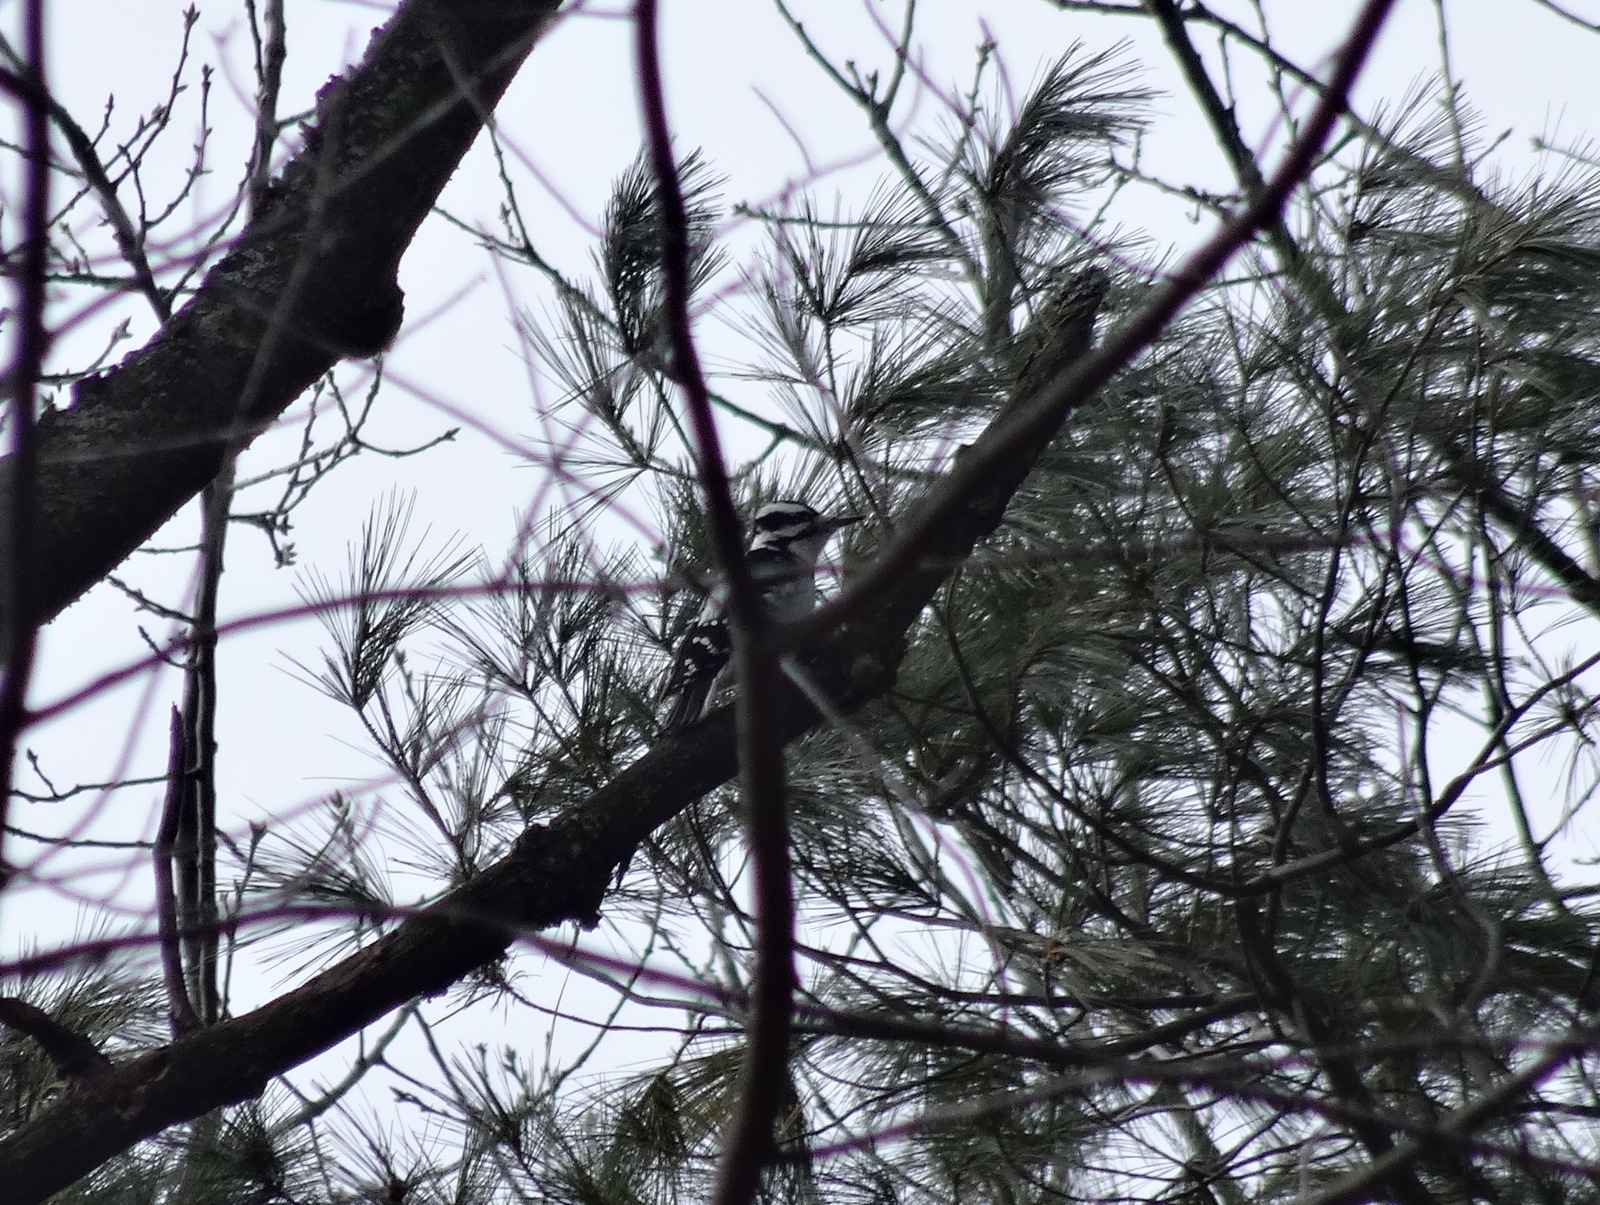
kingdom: Animalia
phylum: Chordata
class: Aves
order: Piciformes
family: Picidae
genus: Leuconotopicus
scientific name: Leuconotopicus villosus
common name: Hairy woodpecker
